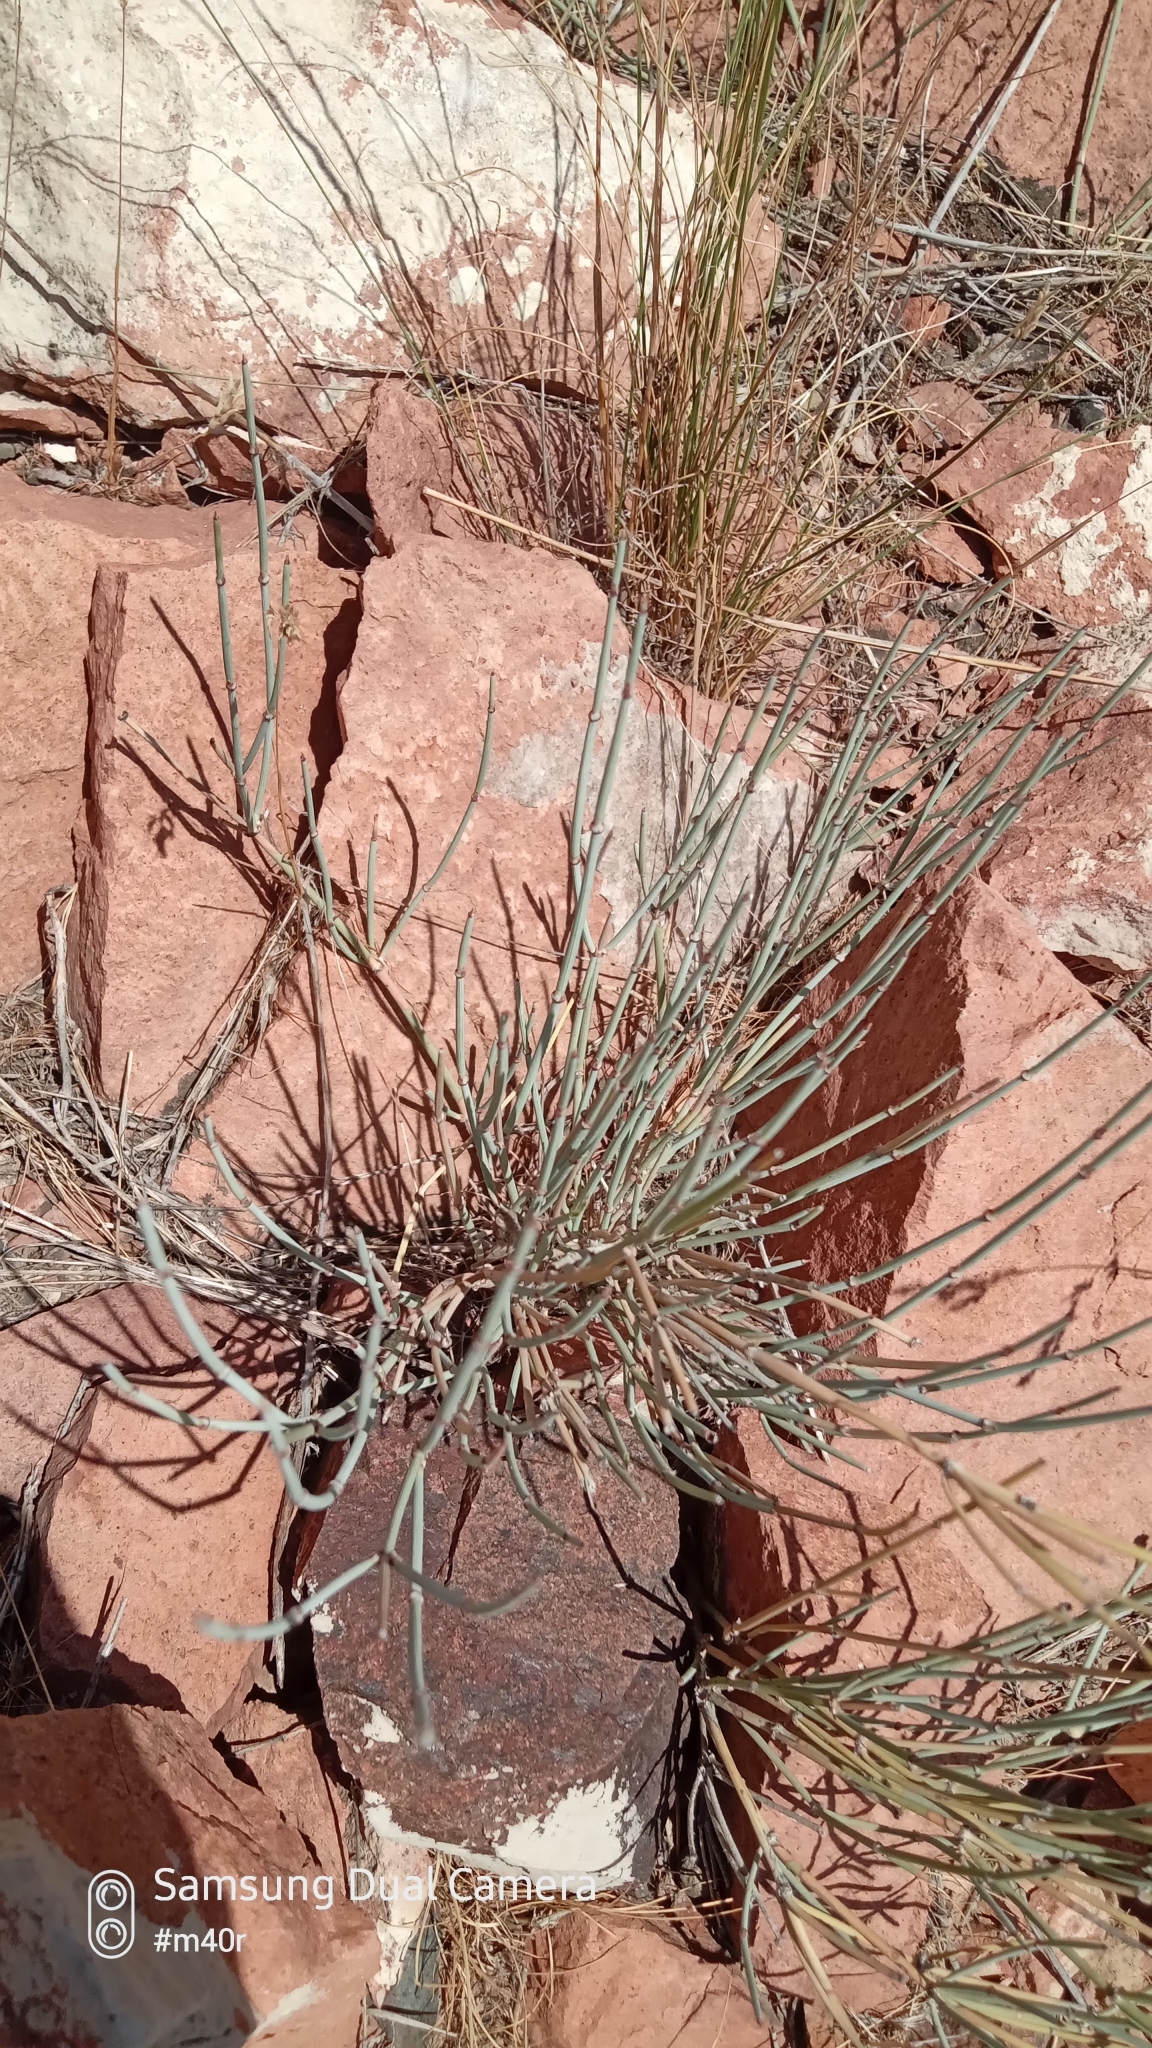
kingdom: Plantae
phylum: Tracheophyta
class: Gnetopsida
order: Ephedrales
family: Ephedraceae
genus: Ephedra
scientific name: Ephedra intermedia
